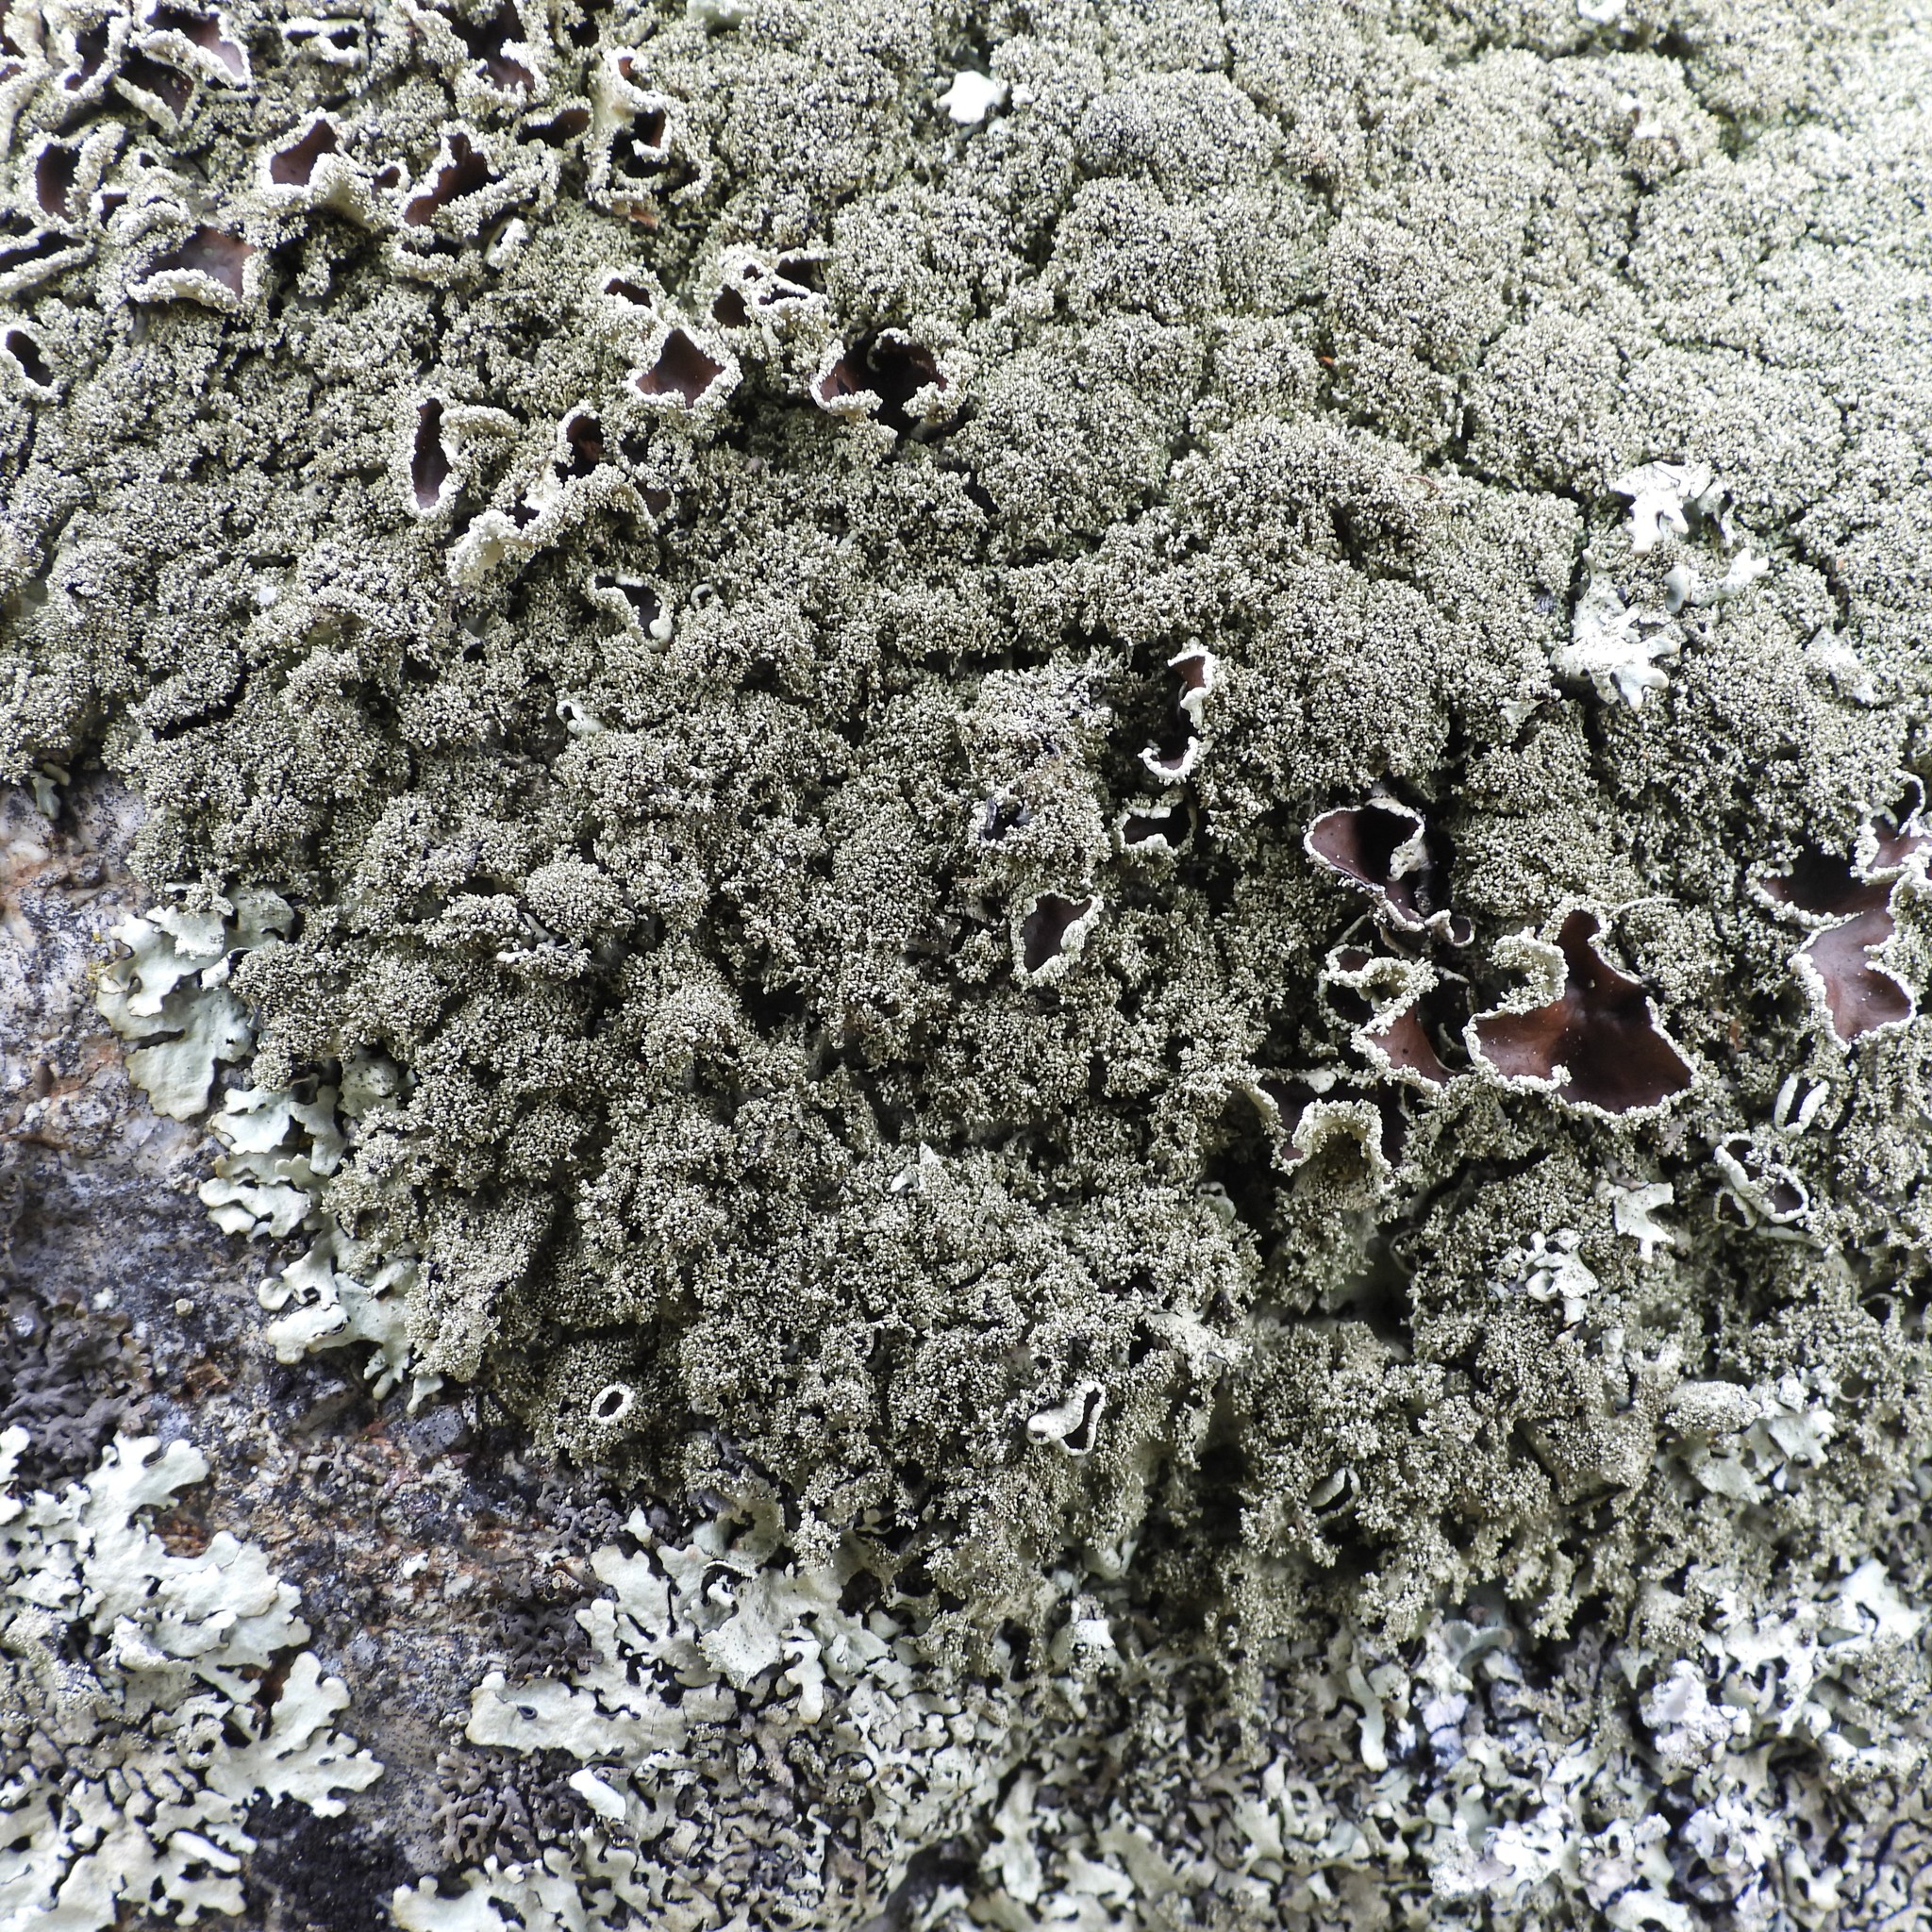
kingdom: Fungi
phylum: Ascomycota
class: Lecanoromycetes
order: Lecanorales
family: Parmeliaceae
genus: Xanthoparmelia
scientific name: Xanthoparmelia conspersa
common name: Peppered rock shield
